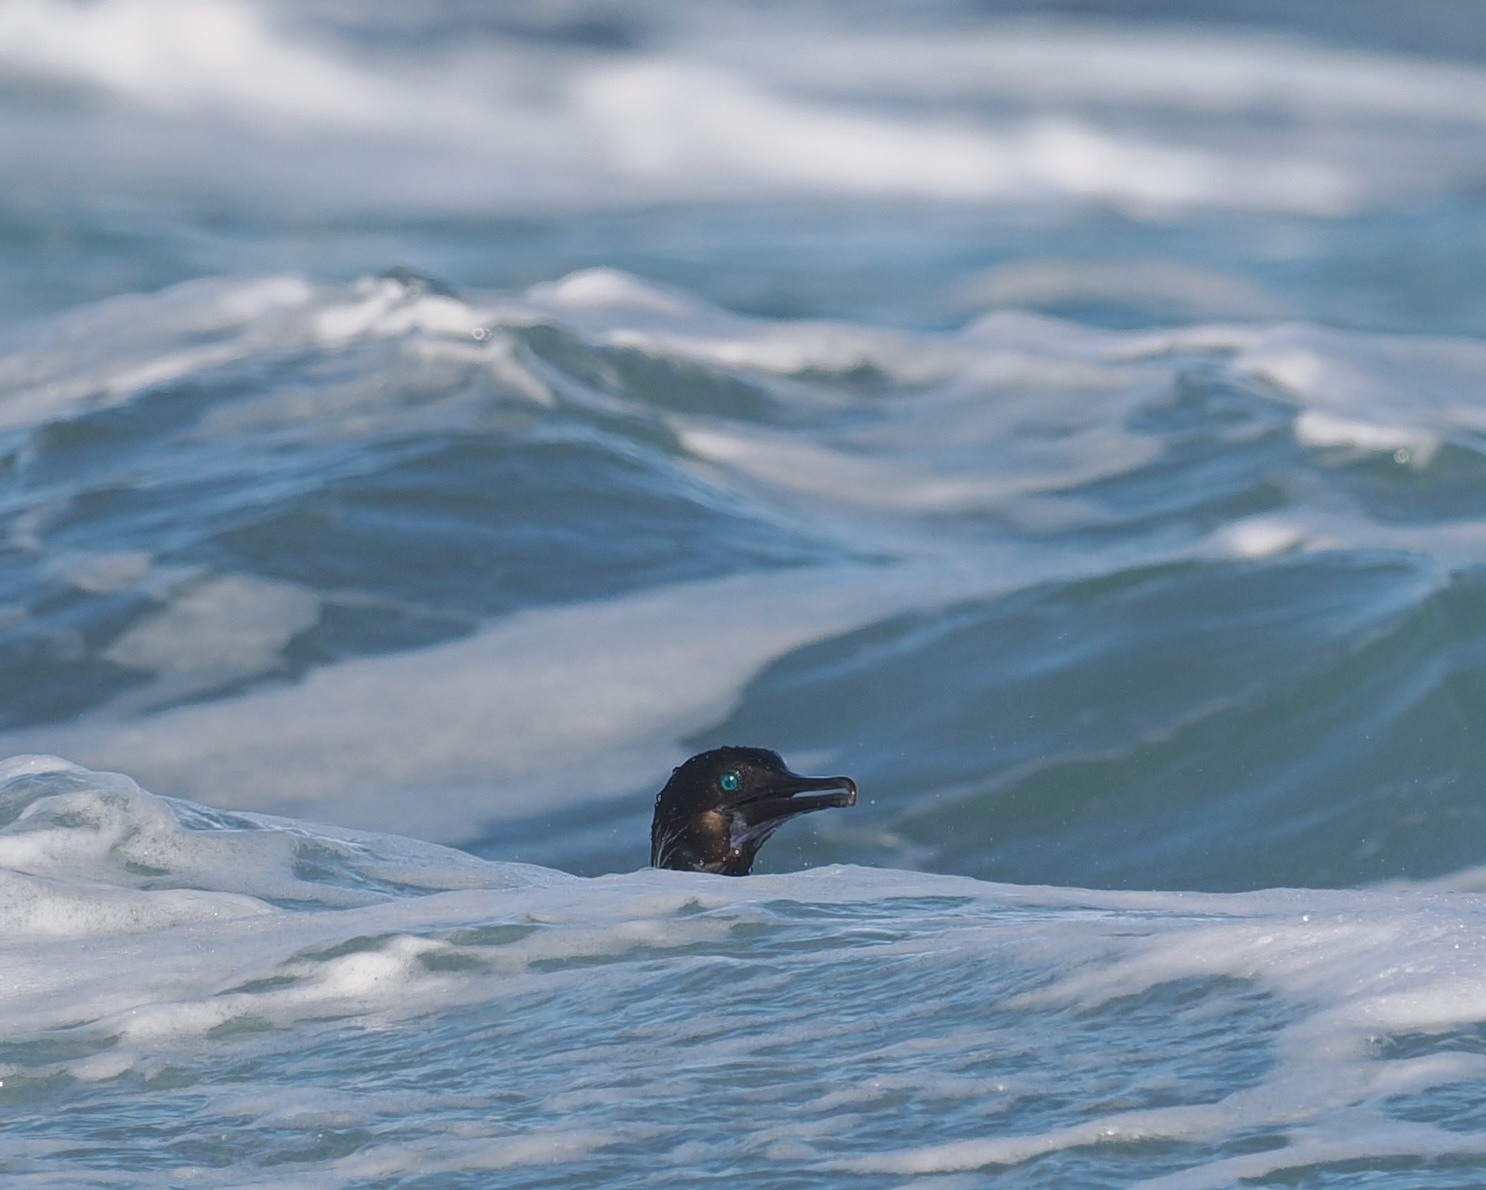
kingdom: Animalia
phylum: Chordata
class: Aves
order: Suliformes
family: Phalacrocoracidae
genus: Urile
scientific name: Urile penicillatus
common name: Brandt's cormorant
